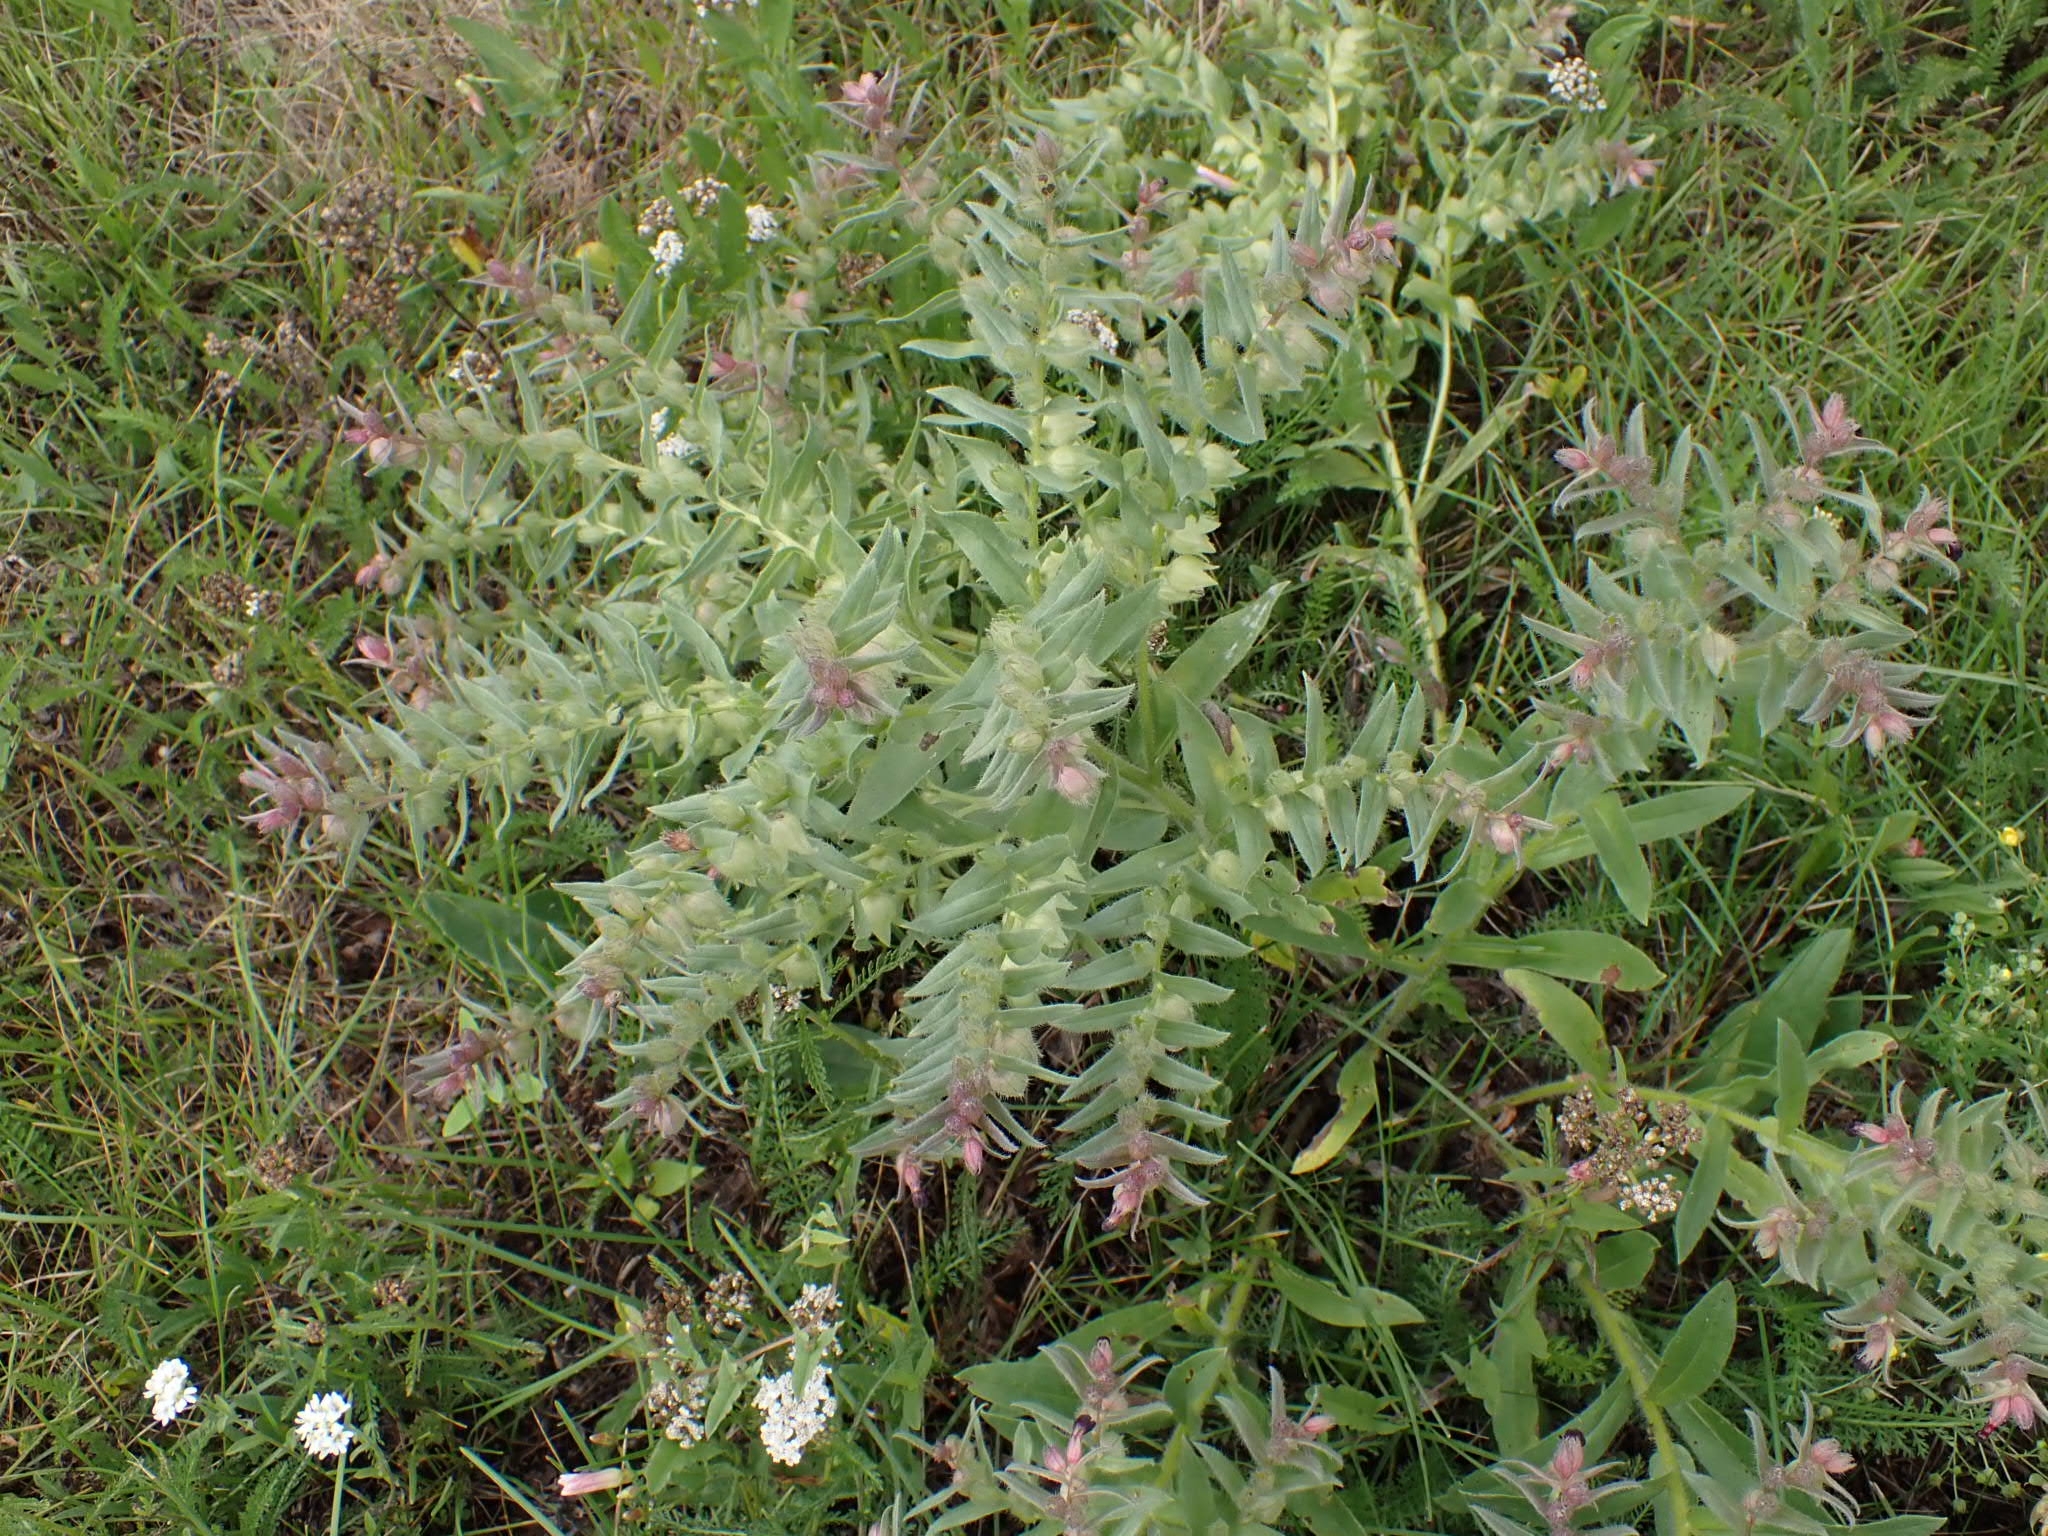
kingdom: Plantae
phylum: Tracheophyta
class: Magnoliopsida
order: Boraginales
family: Boraginaceae
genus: Nonea
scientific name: Nonea pulla
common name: Brown nonea
